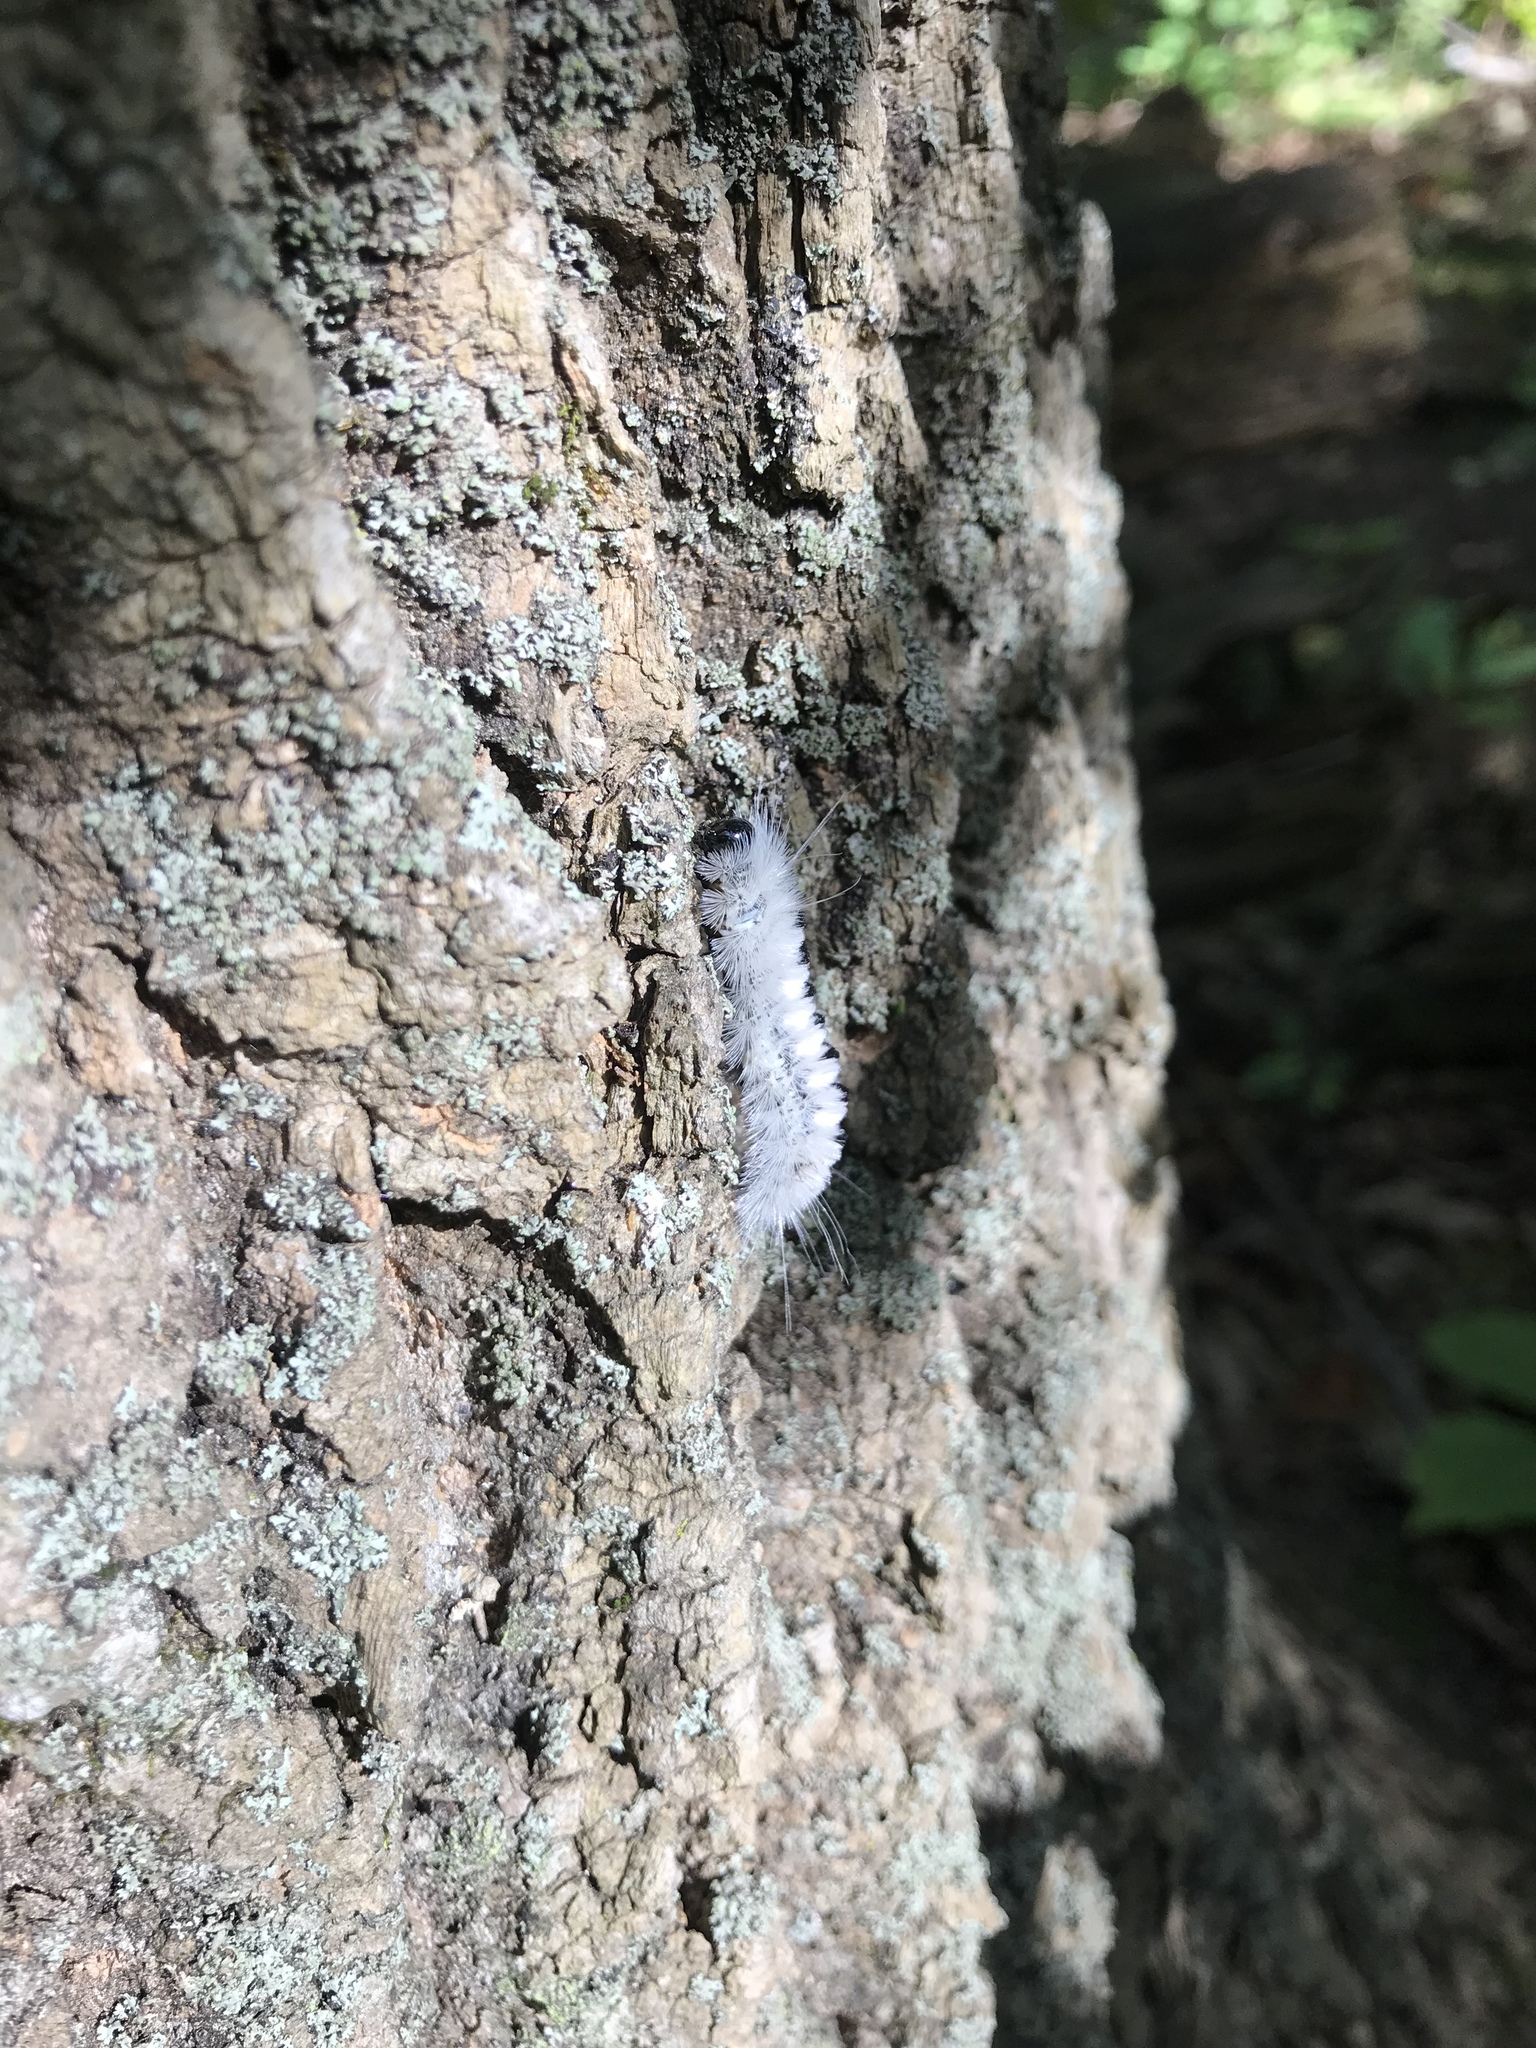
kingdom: Animalia
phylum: Arthropoda
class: Insecta
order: Lepidoptera
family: Erebidae
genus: Lophocampa
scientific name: Lophocampa caryae
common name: Hickory tussock moth
